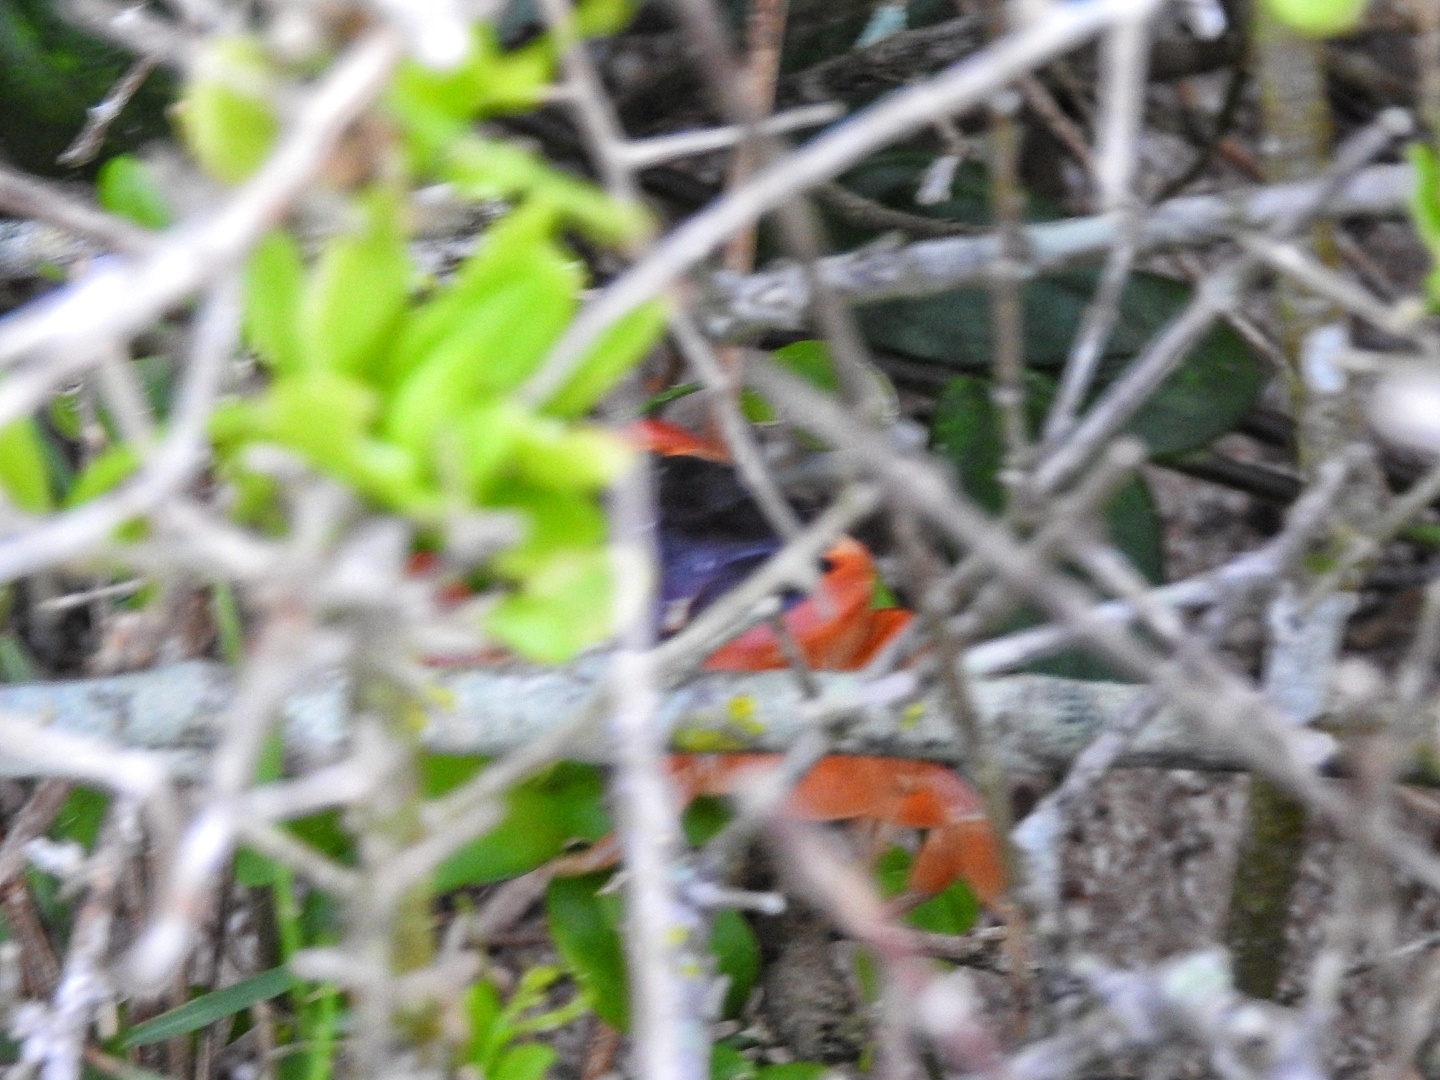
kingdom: Animalia
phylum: Arthropoda
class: Malacostraca
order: Decapoda
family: Gecarcinidae
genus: Gecarcinus
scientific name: Gecarcinus lateralis
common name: Bermuda land crab
